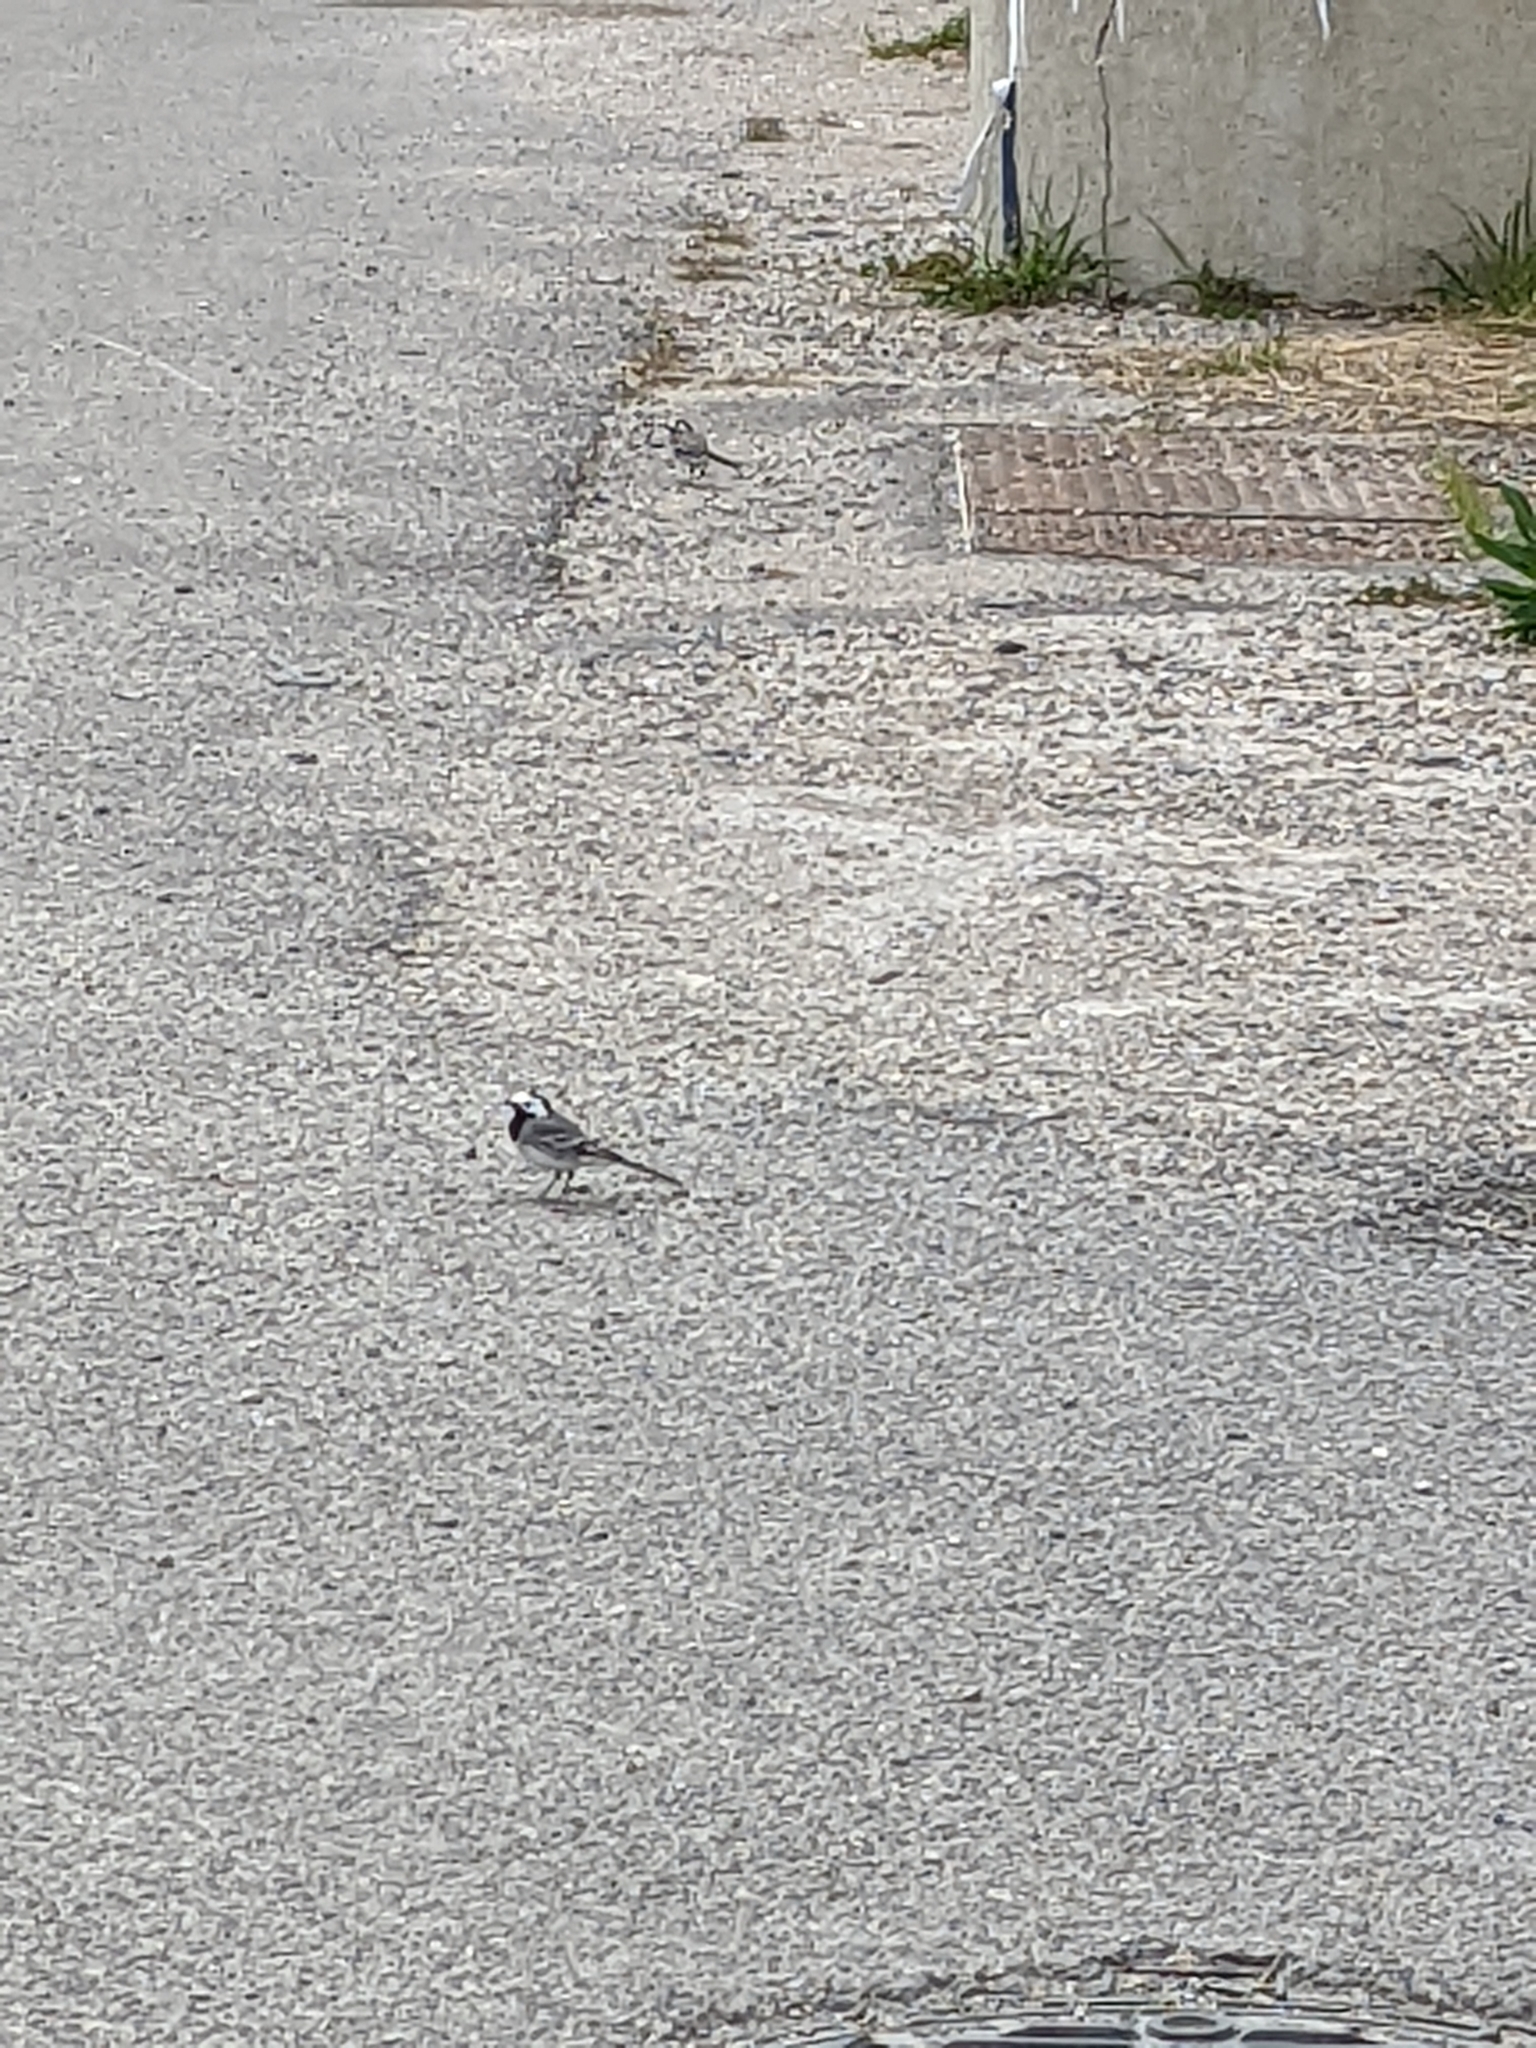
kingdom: Animalia
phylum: Chordata
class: Aves
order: Passeriformes
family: Motacillidae
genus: Motacilla
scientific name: Motacilla alba
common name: White wagtail
